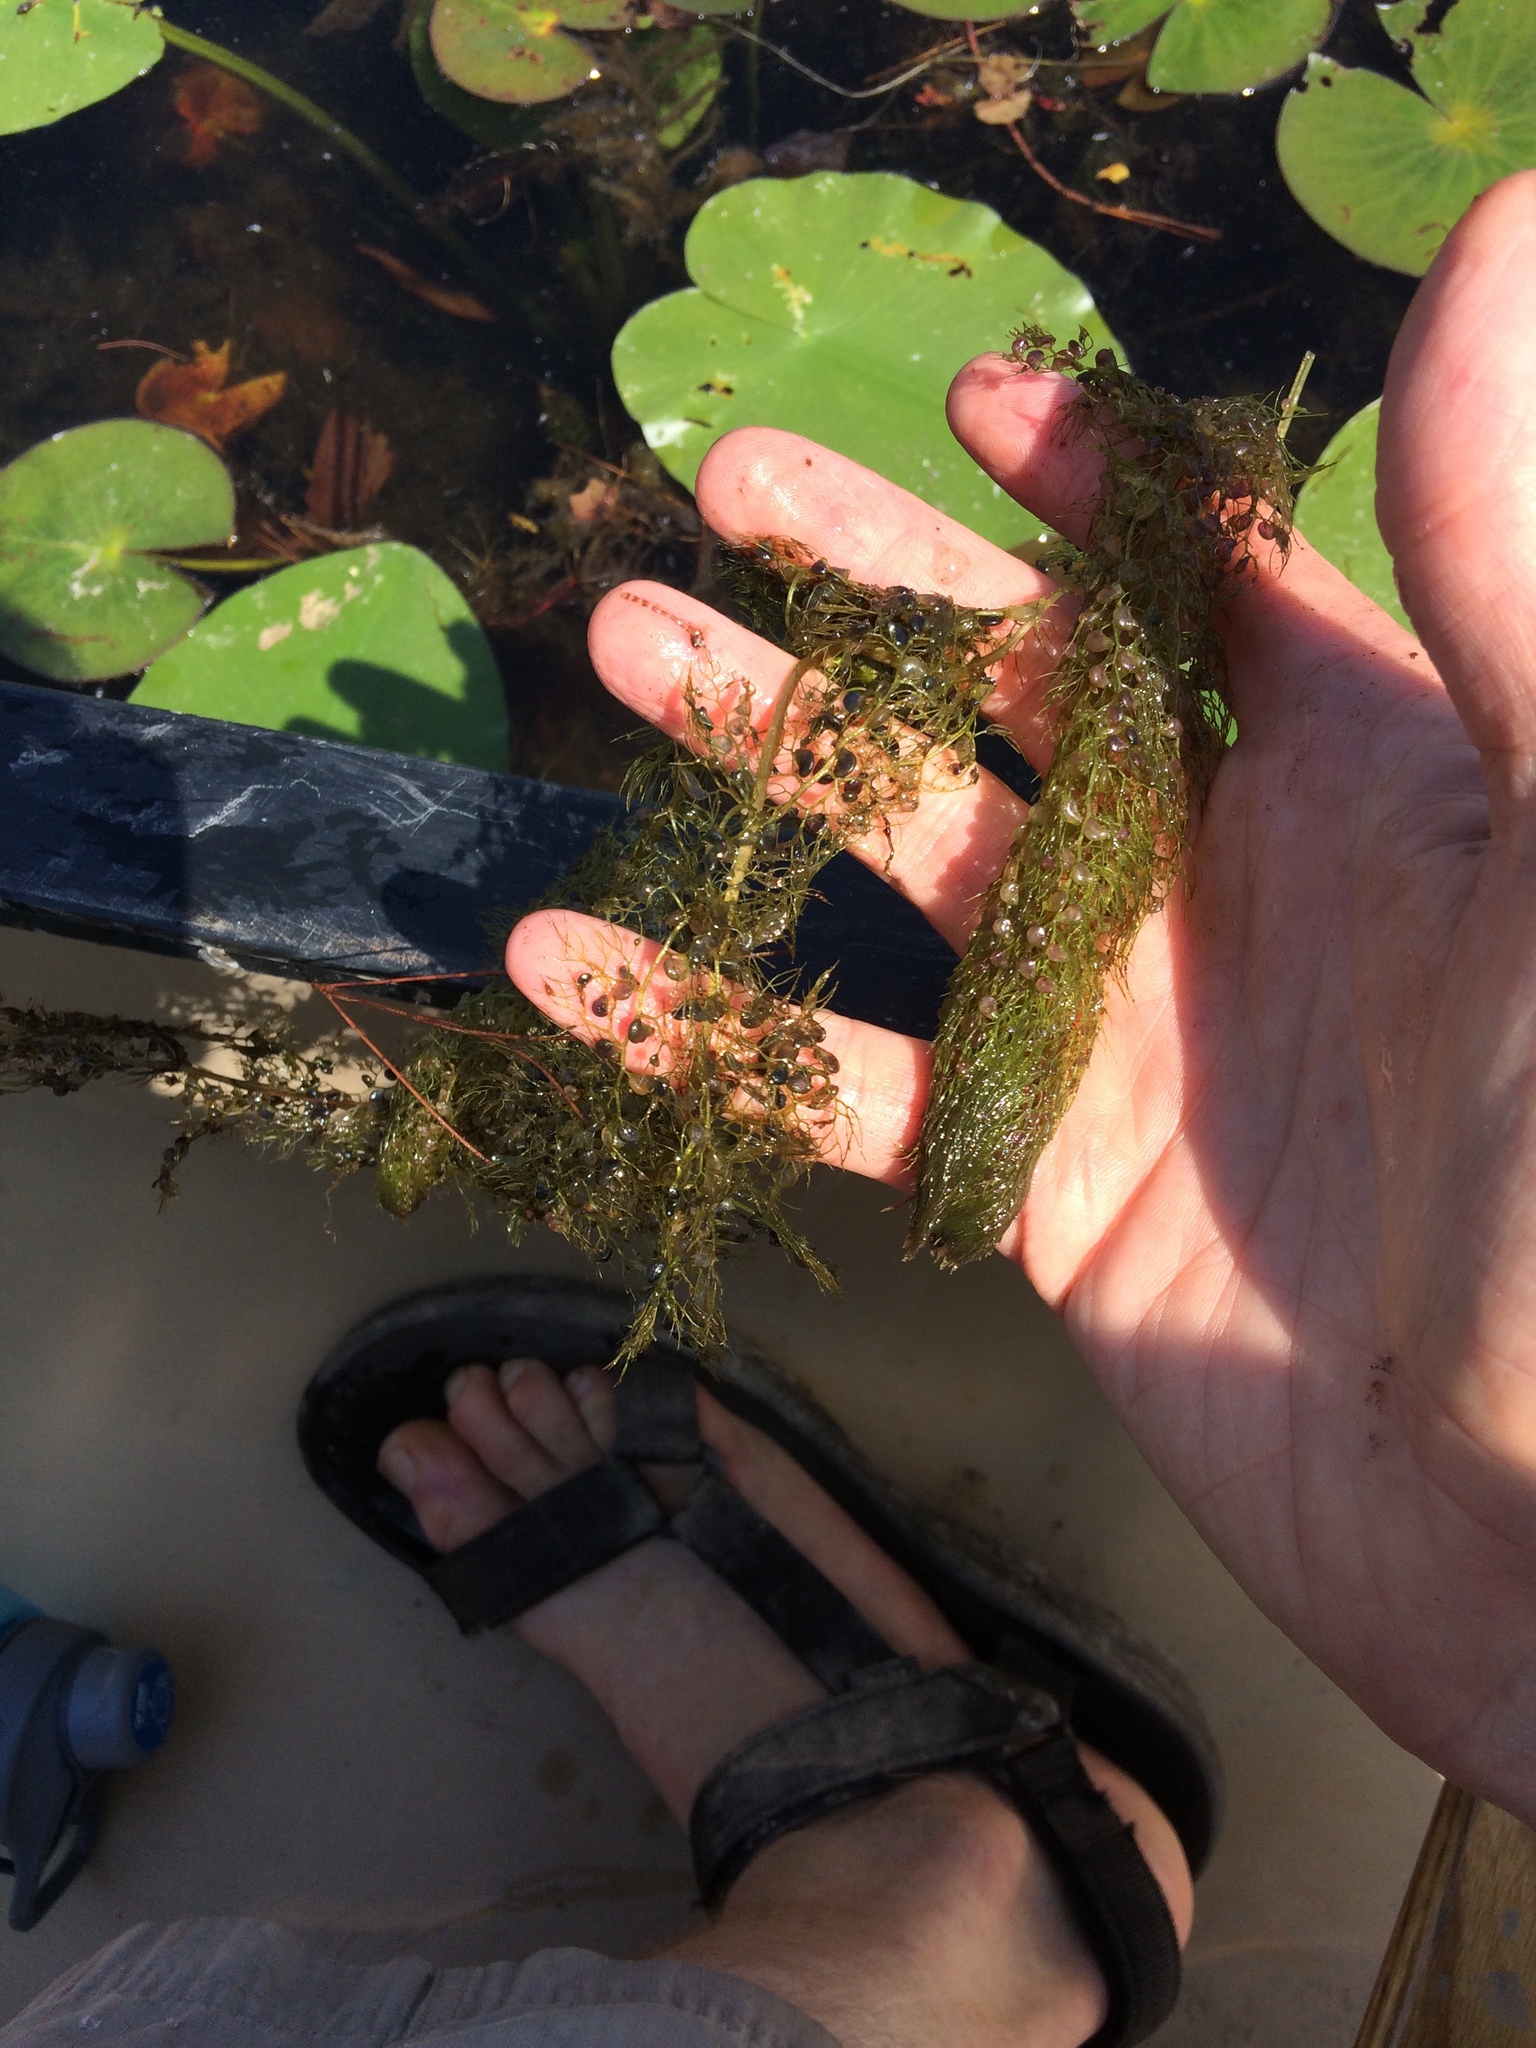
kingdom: Plantae
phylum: Tracheophyta
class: Magnoliopsida
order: Lamiales
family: Lentibulariaceae
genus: Utricularia
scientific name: Utricularia macrorhiza
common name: Common bladderwort
